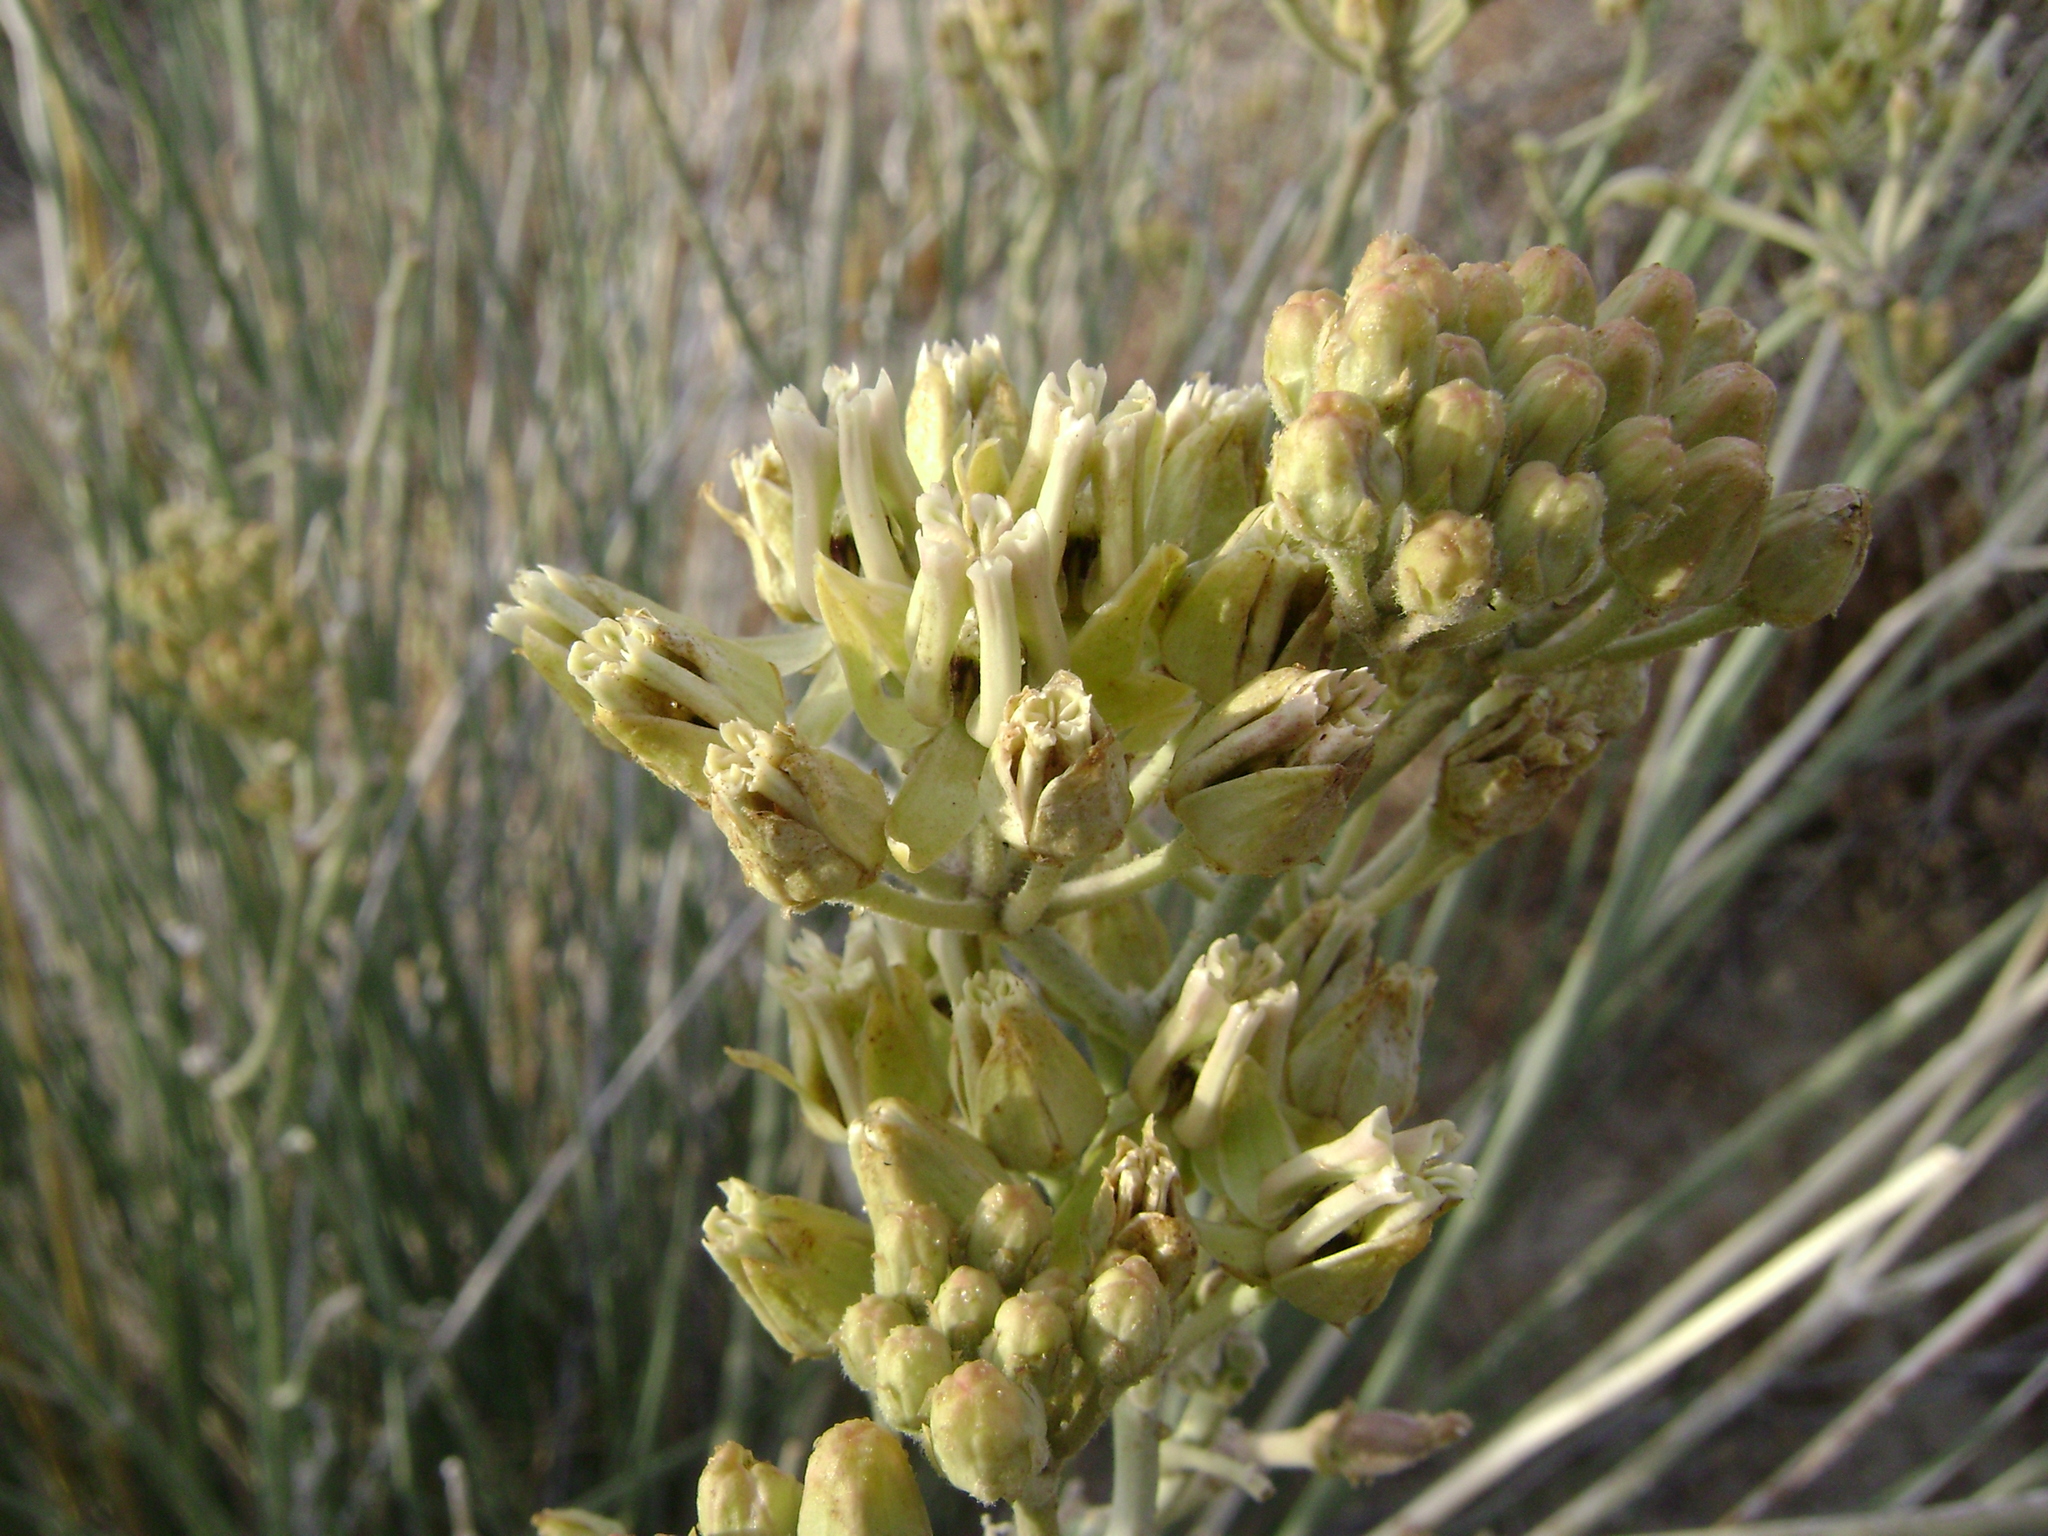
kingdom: Plantae
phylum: Tracheophyta
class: Magnoliopsida
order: Gentianales
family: Apocynaceae
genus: Asclepias
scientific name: Asclepias subulata
